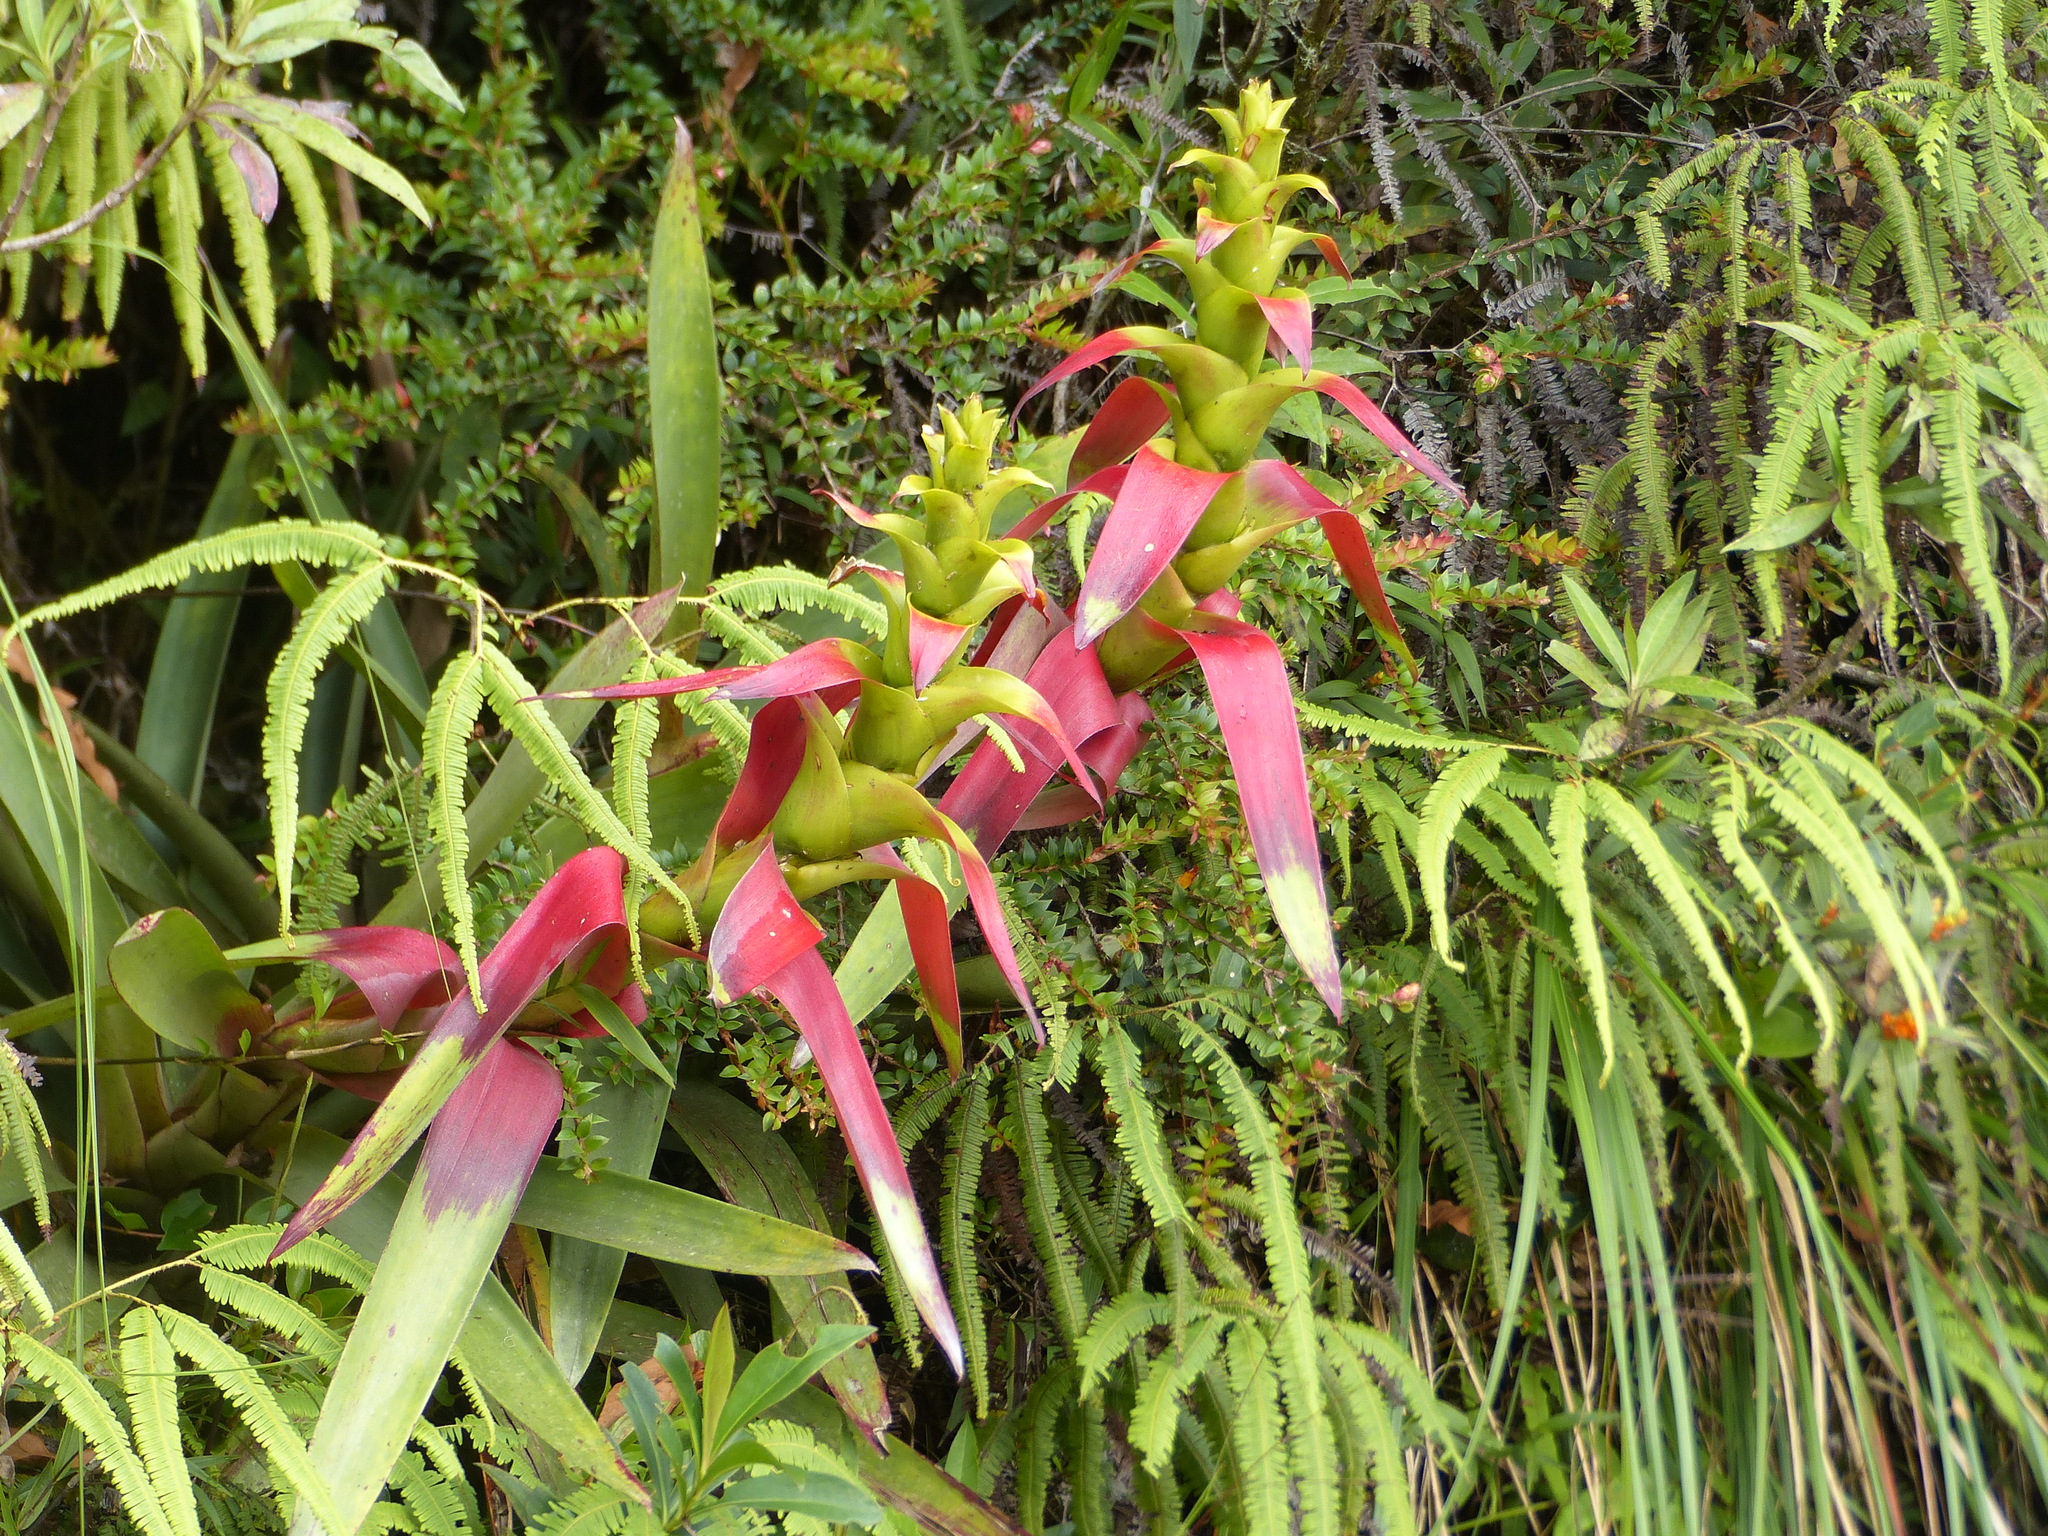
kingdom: Plantae
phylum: Tracheophyta
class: Liliopsida
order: Poales
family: Bromeliaceae
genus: Guzmania
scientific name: Guzmania squarrosa
